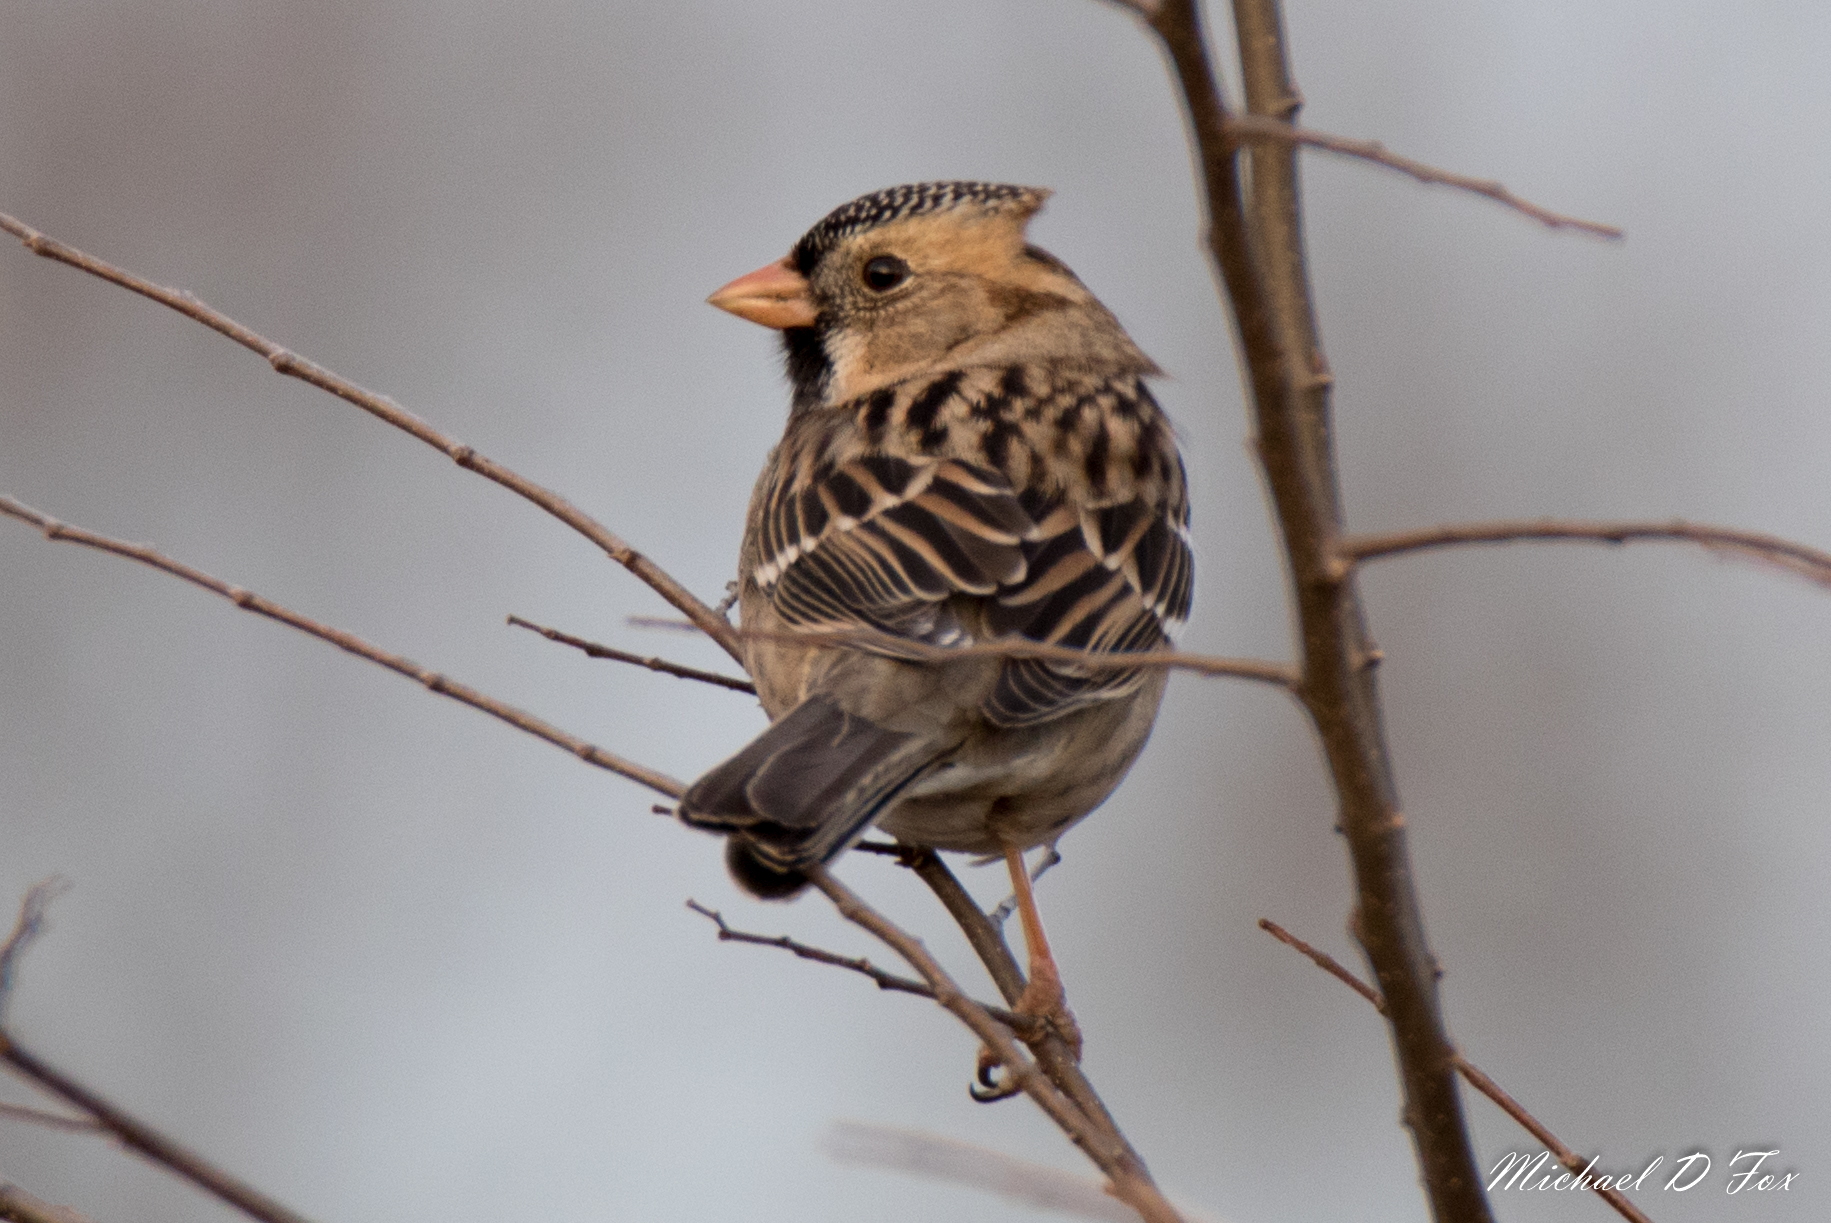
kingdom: Animalia
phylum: Chordata
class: Aves
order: Passeriformes
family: Passerellidae
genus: Zonotrichia
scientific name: Zonotrichia querula
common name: Harris's sparrow
